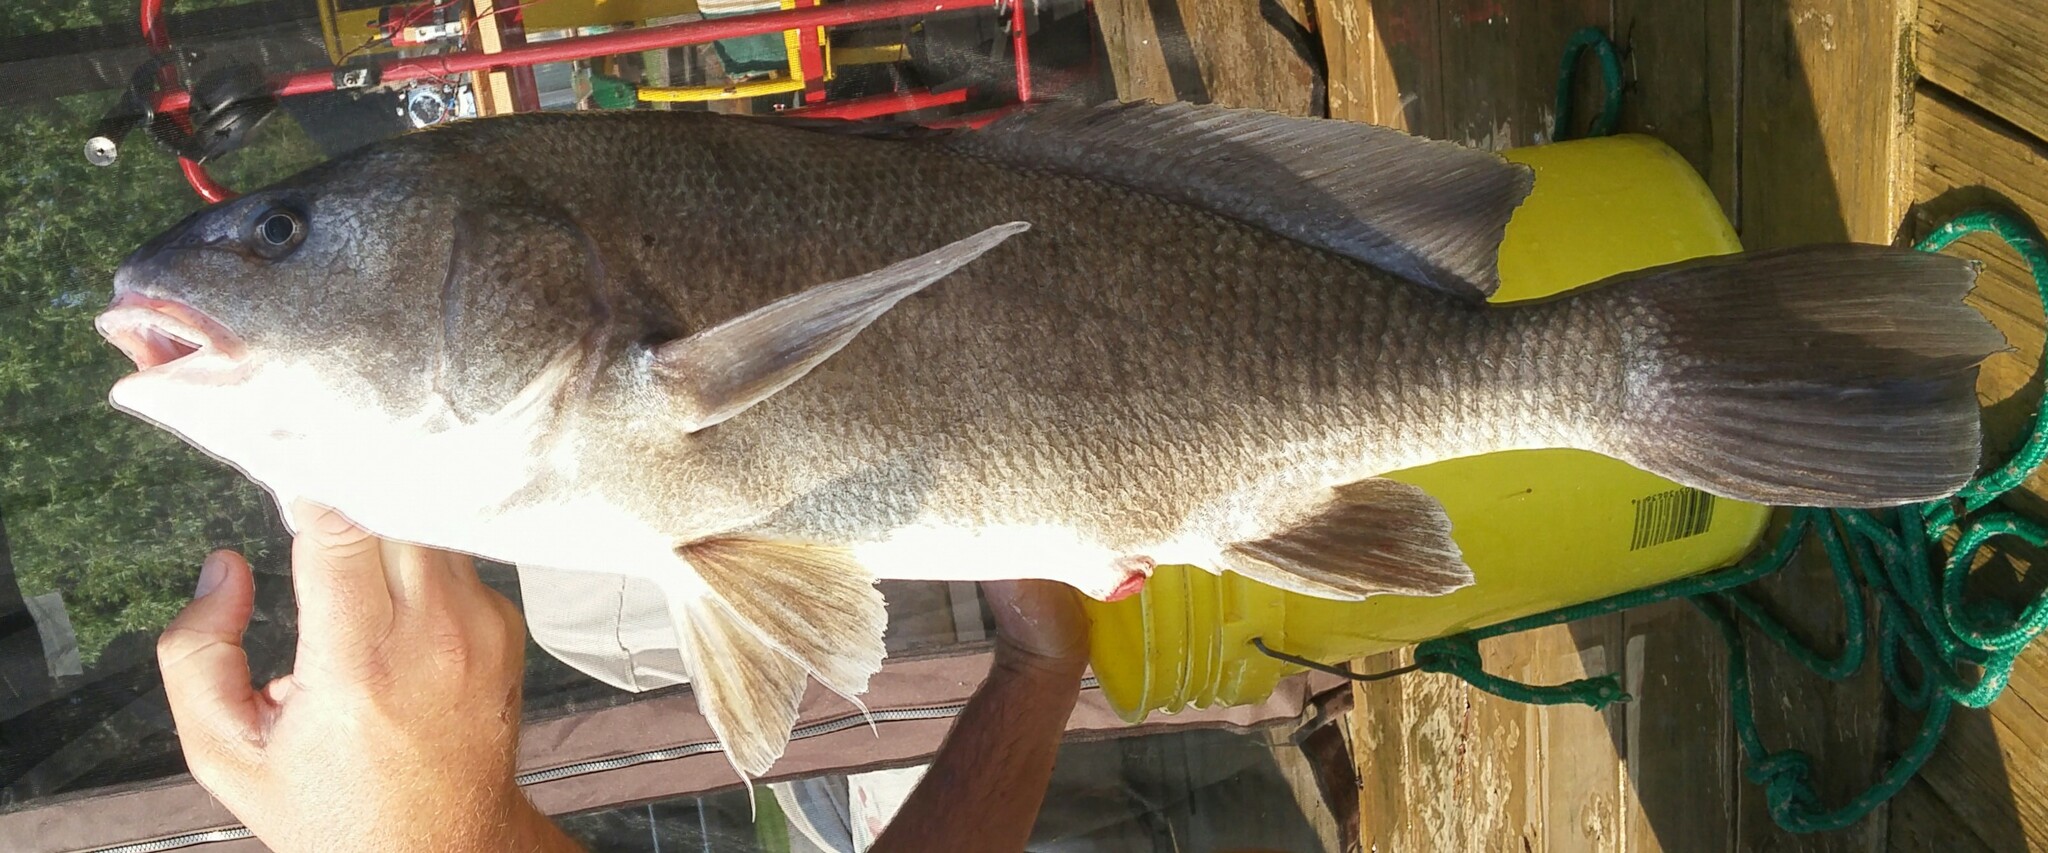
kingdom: Animalia
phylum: Chordata
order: Perciformes
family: Sciaenidae
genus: Aplodinotus
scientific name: Aplodinotus grunniens
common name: Freshwater drum
